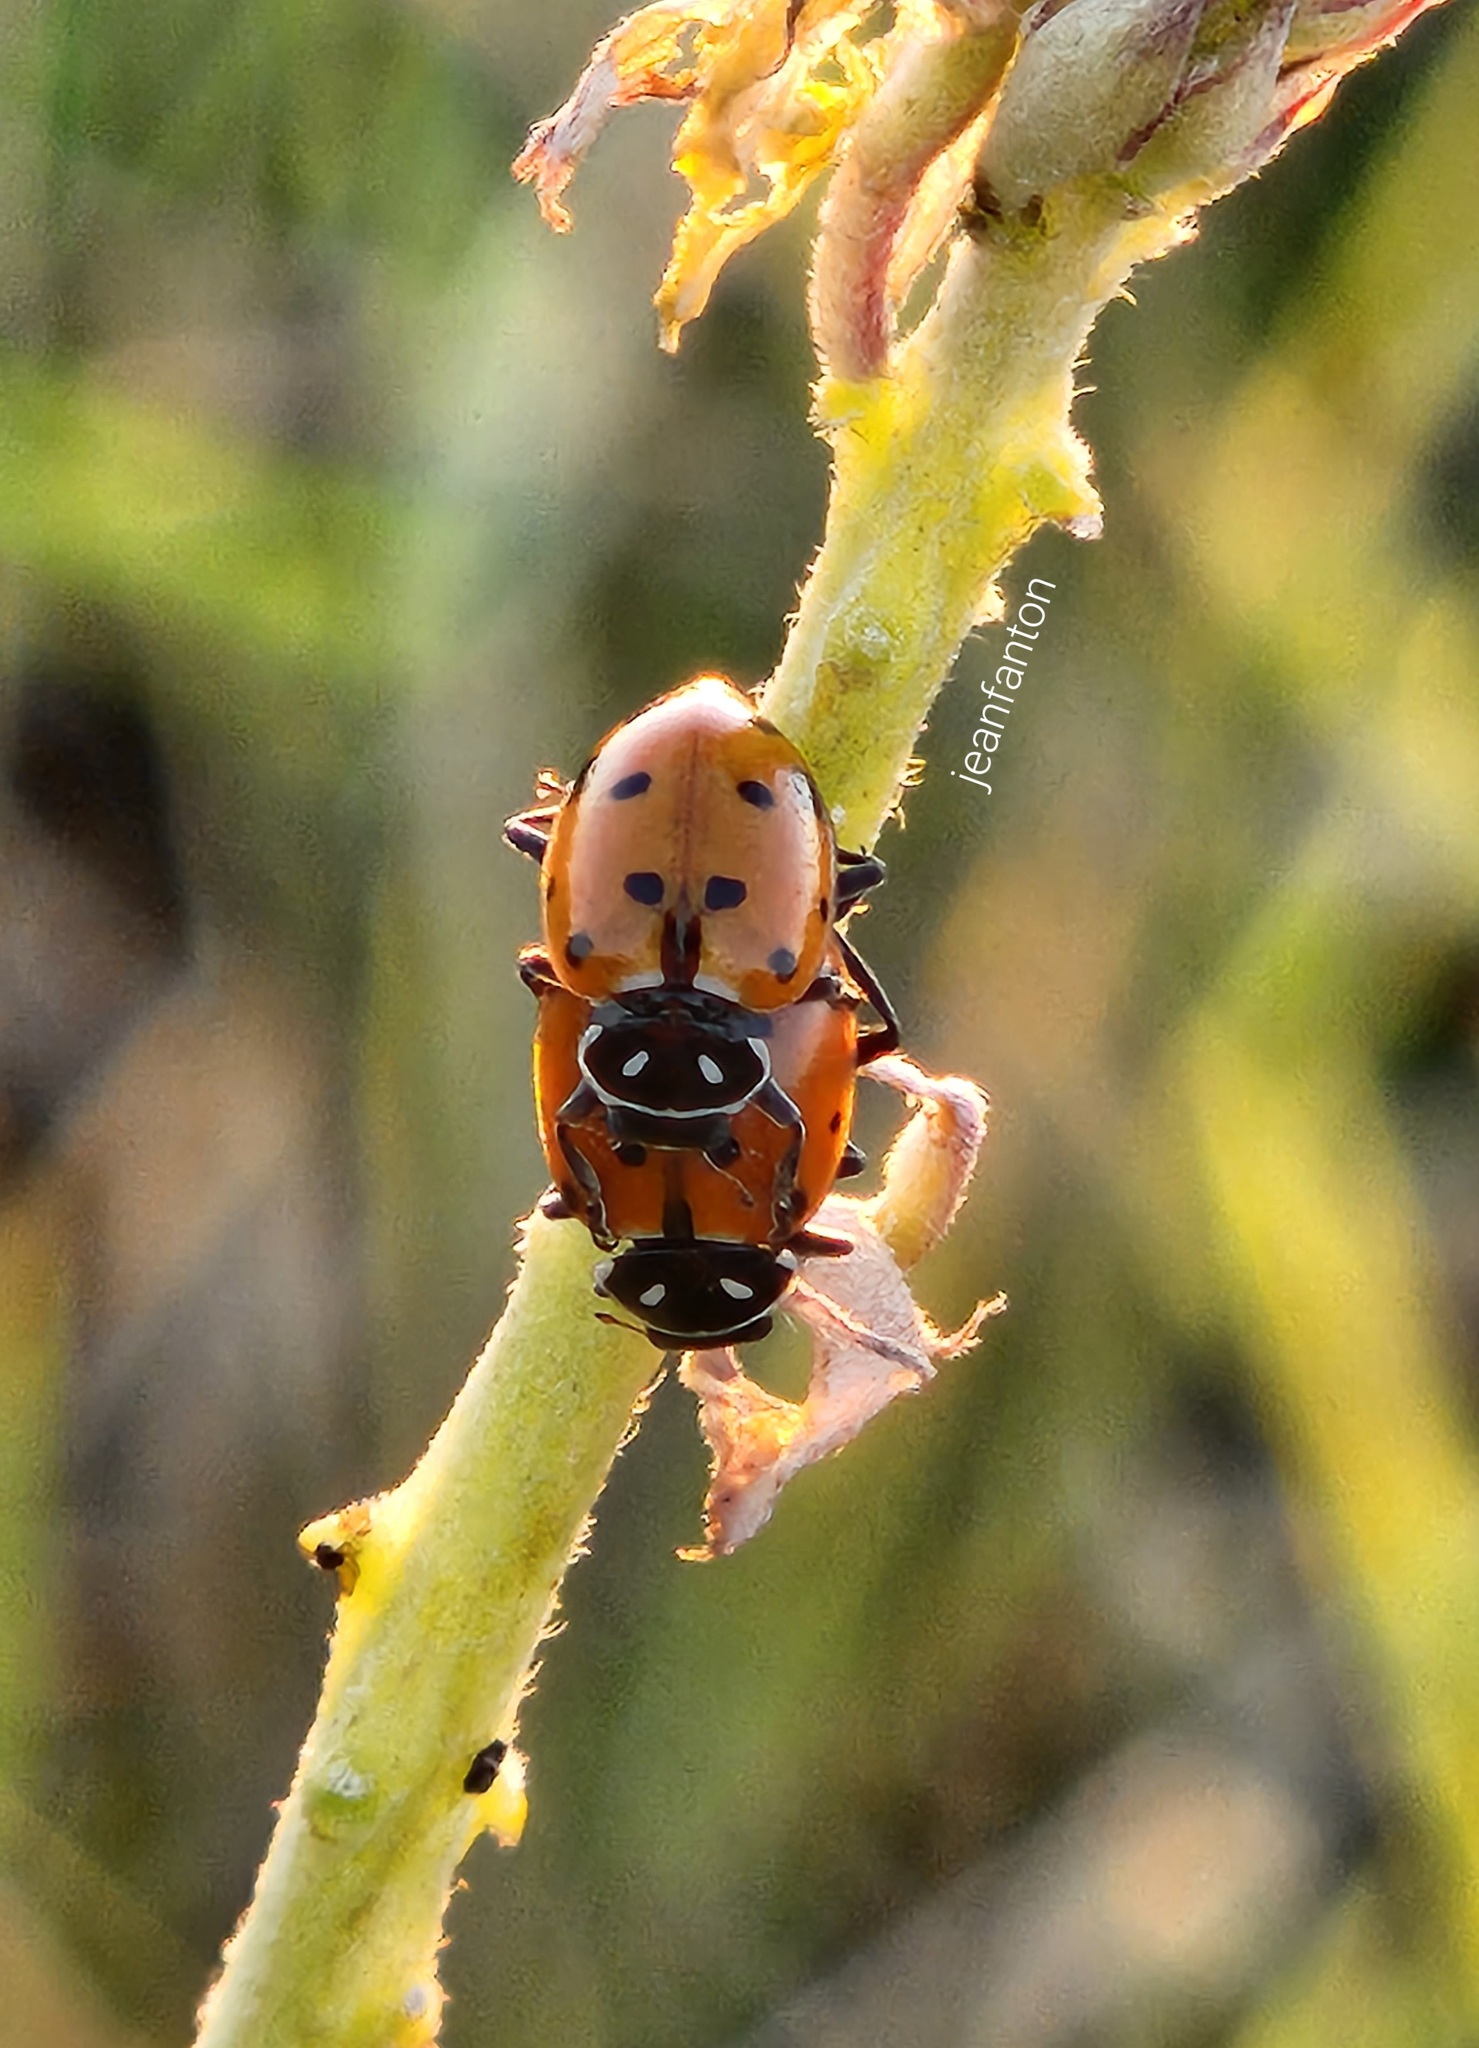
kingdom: Animalia
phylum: Arthropoda
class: Insecta
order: Coleoptera
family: Coccinellidae
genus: Hippodamia
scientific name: Hippodamia convergens
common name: Convergent lady beetle
